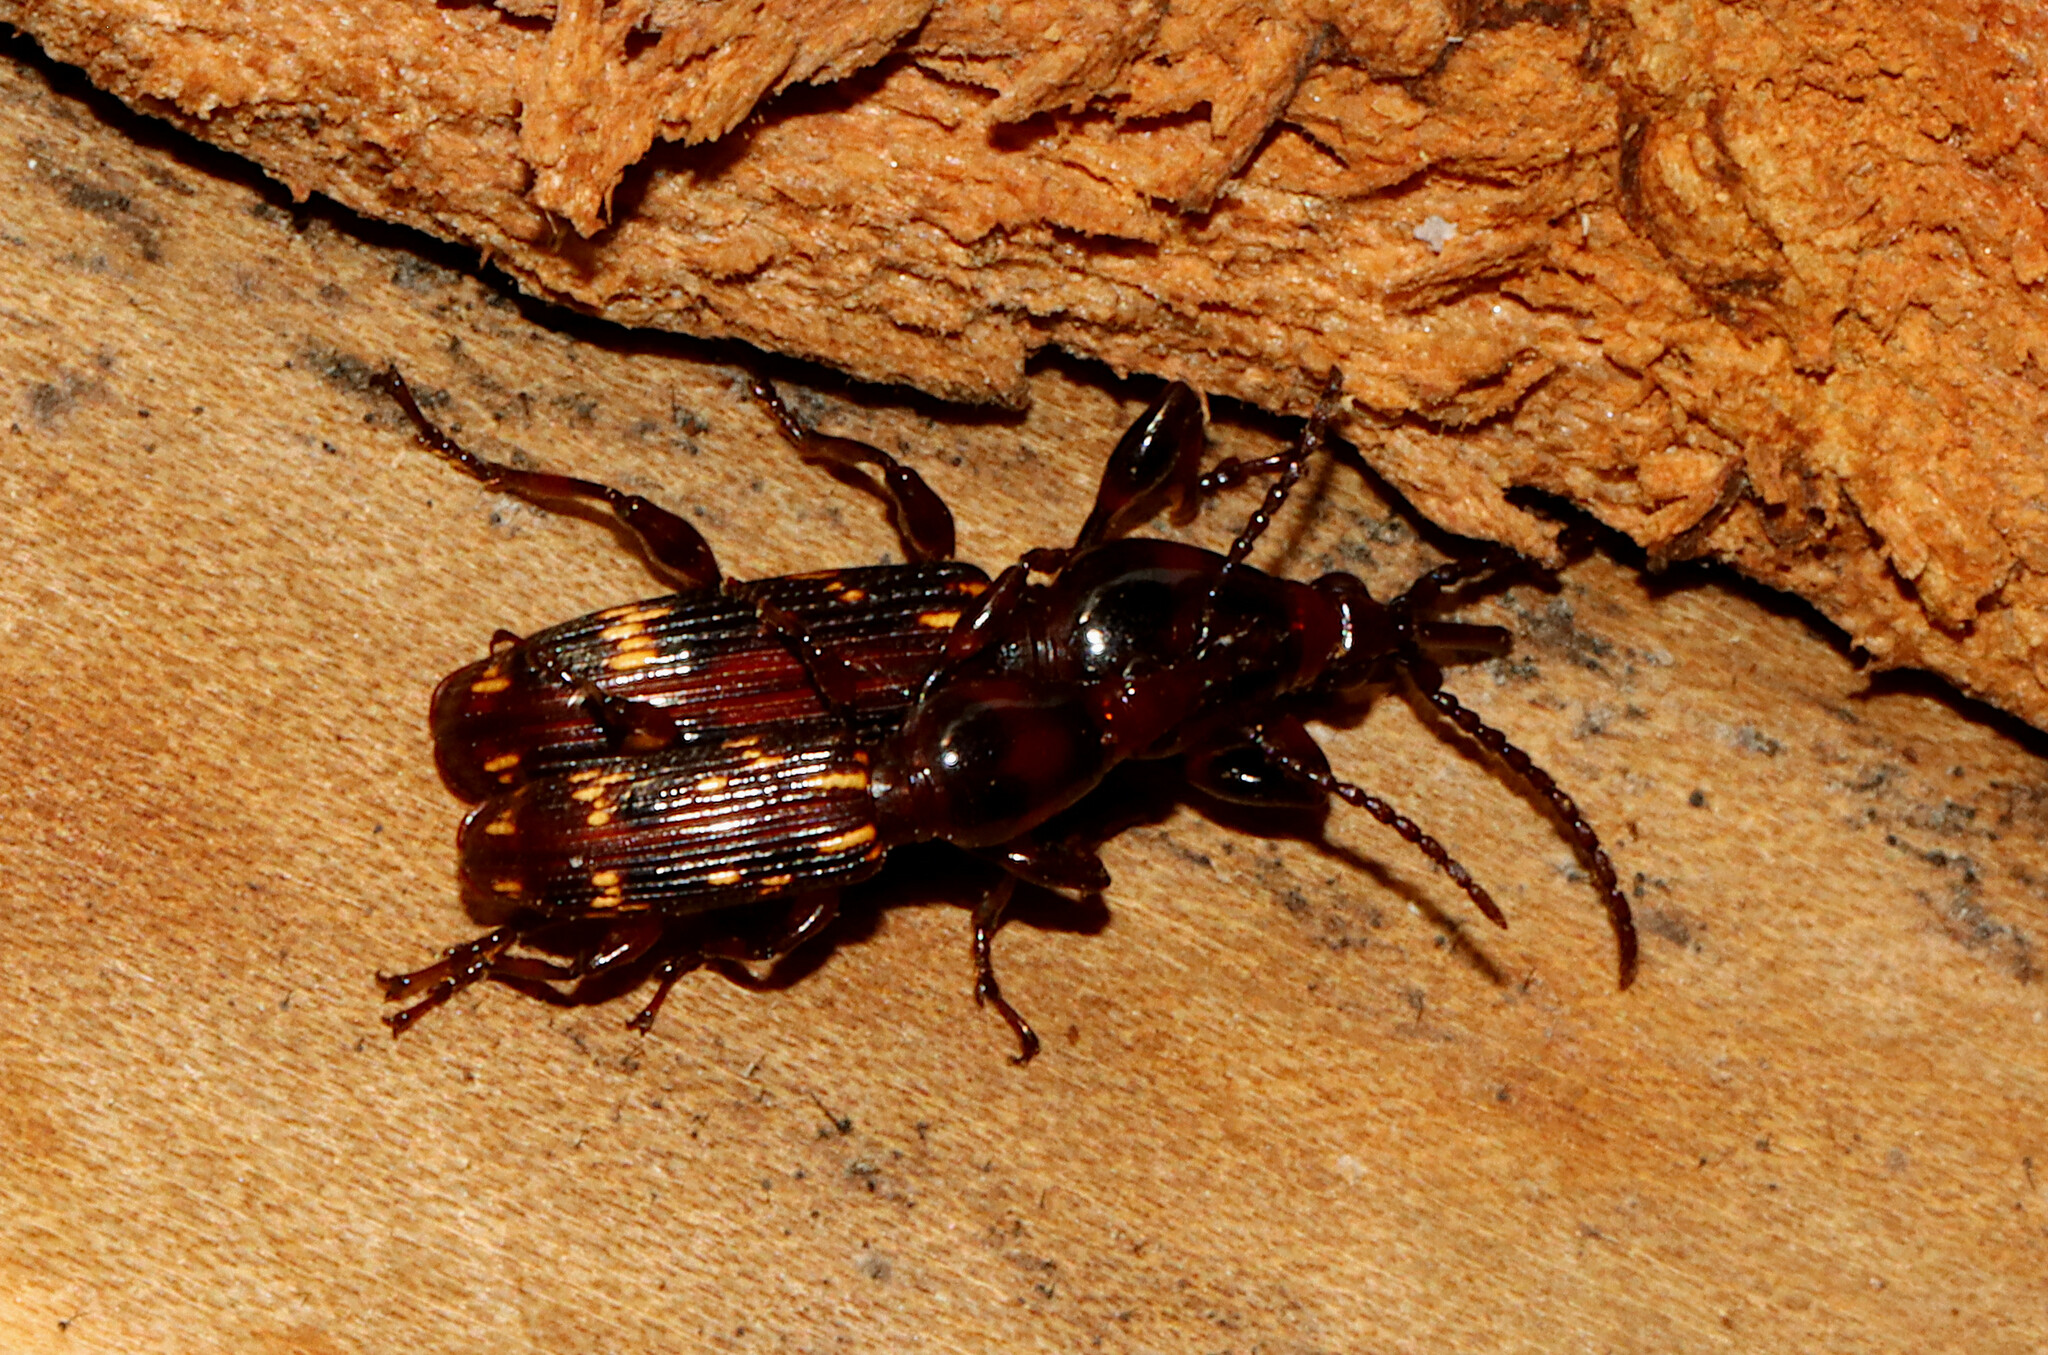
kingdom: Animalia
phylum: Arthropoda
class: Insecta
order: Coleoptera
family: Brentidae
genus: Arrenodes
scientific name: Arrenodes minutus
